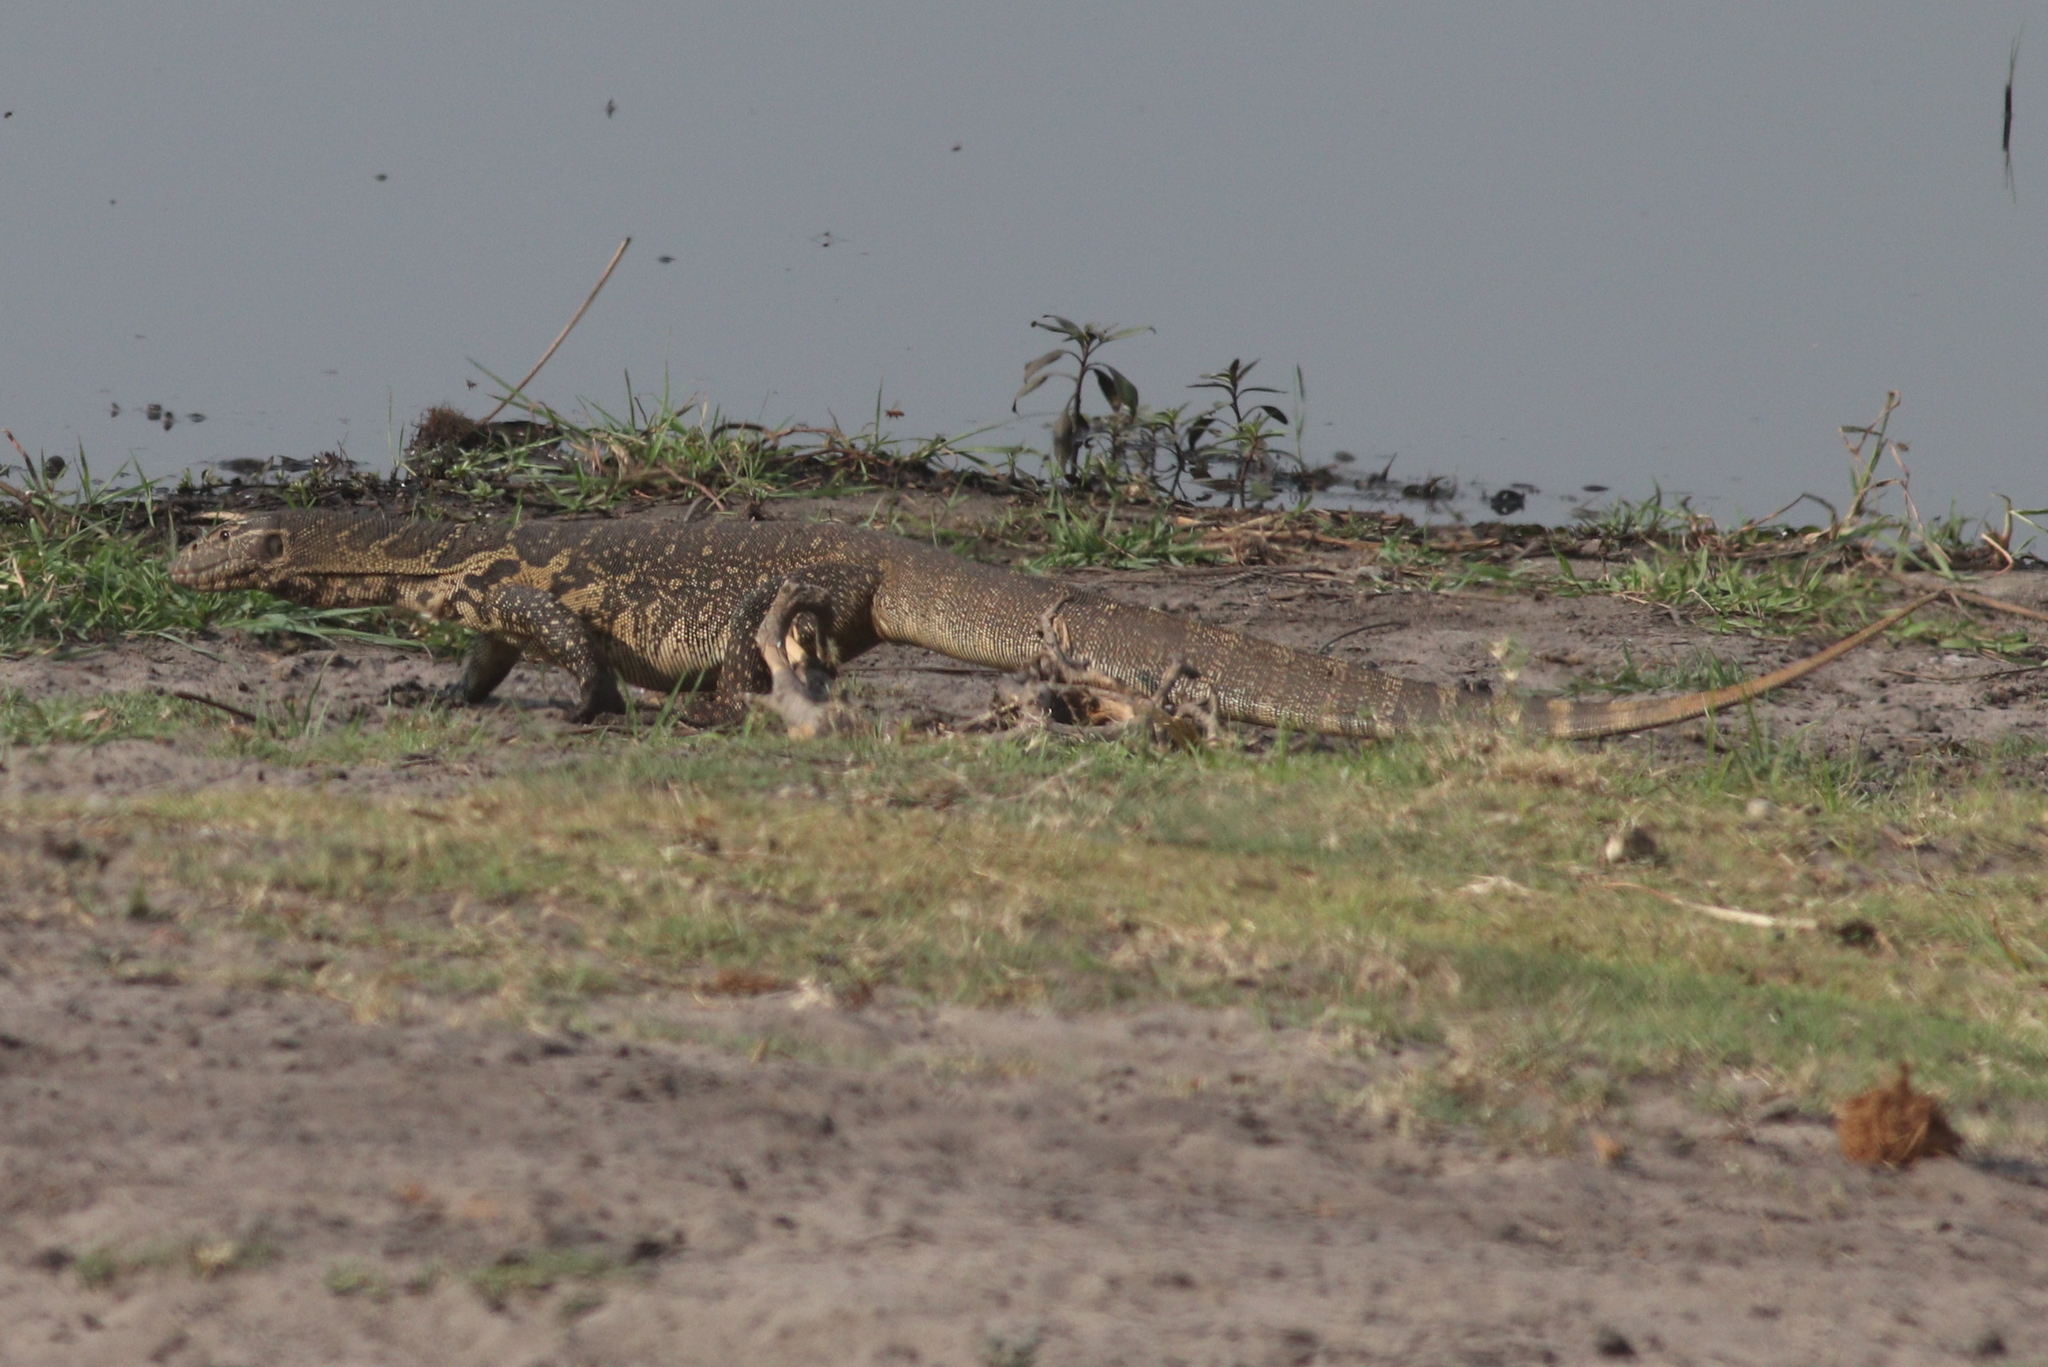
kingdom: Animalia
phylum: Chordata
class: Squamata
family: Varanidae
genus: Varanus
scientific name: Varanus niloticus
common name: Nile monitor
